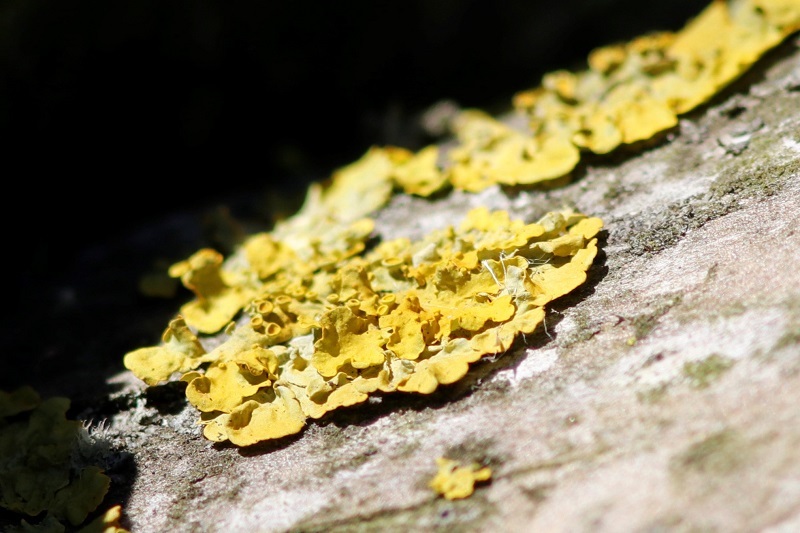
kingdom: Fungi
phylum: Ascomycota
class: Lecanoromycetes
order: Teloschistales
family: Teloschistaceae
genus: Xanthoria
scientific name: Xanthoria parietina
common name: Common orange lichen
